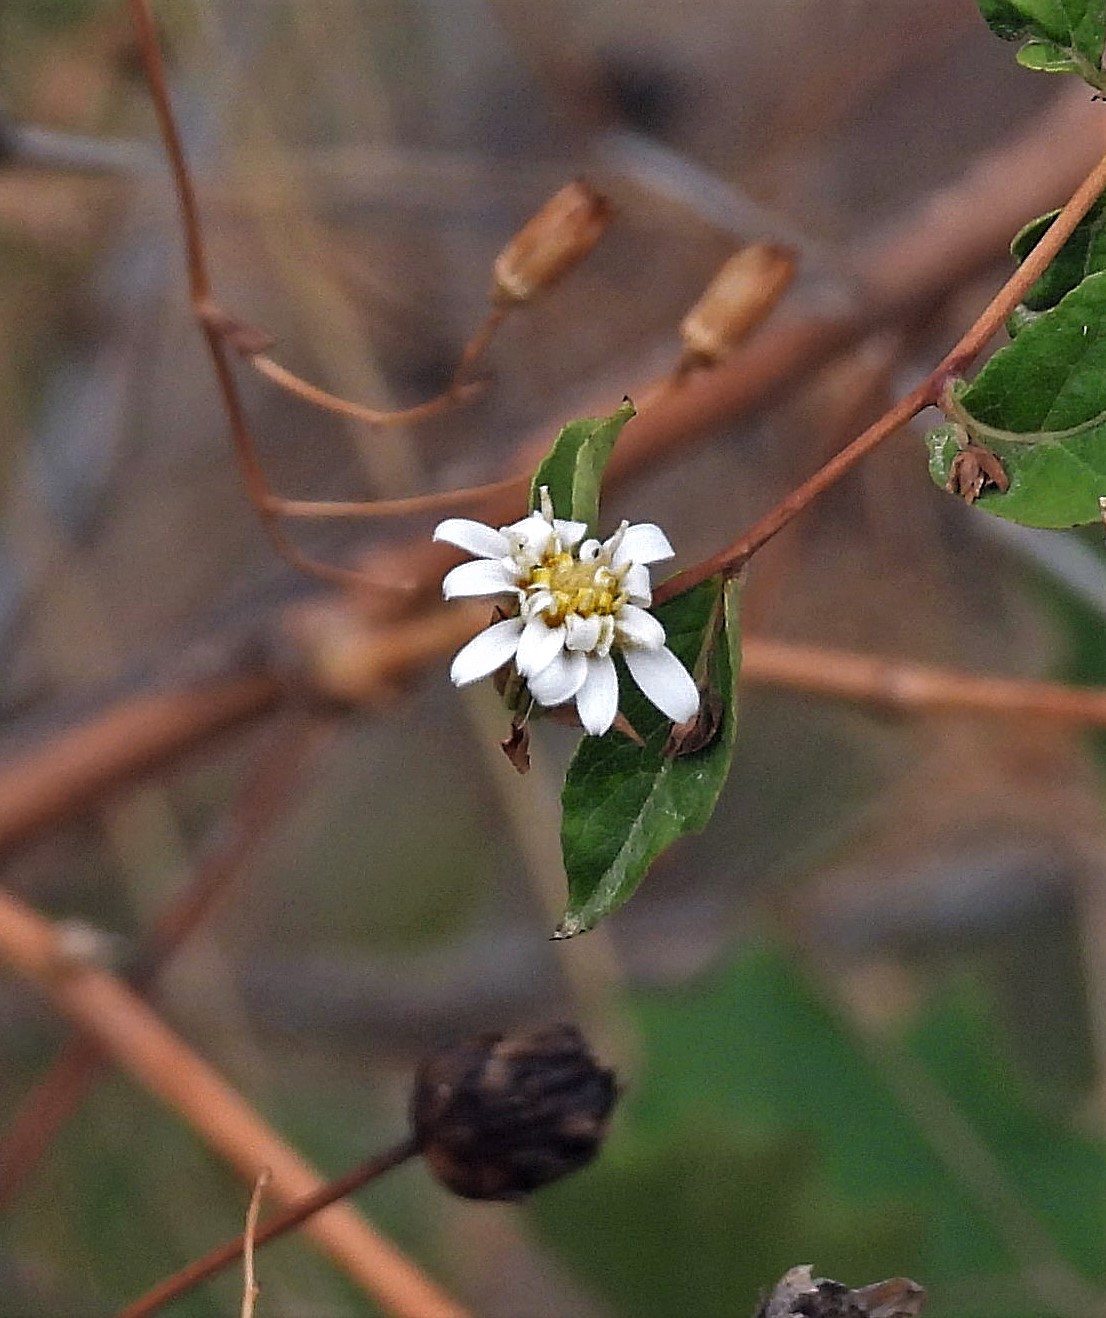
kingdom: Plantae
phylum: Tracheophyta
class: Magnoliopsida
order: Asterales
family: Asteraceae
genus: Jungia
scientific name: Jungia polita
